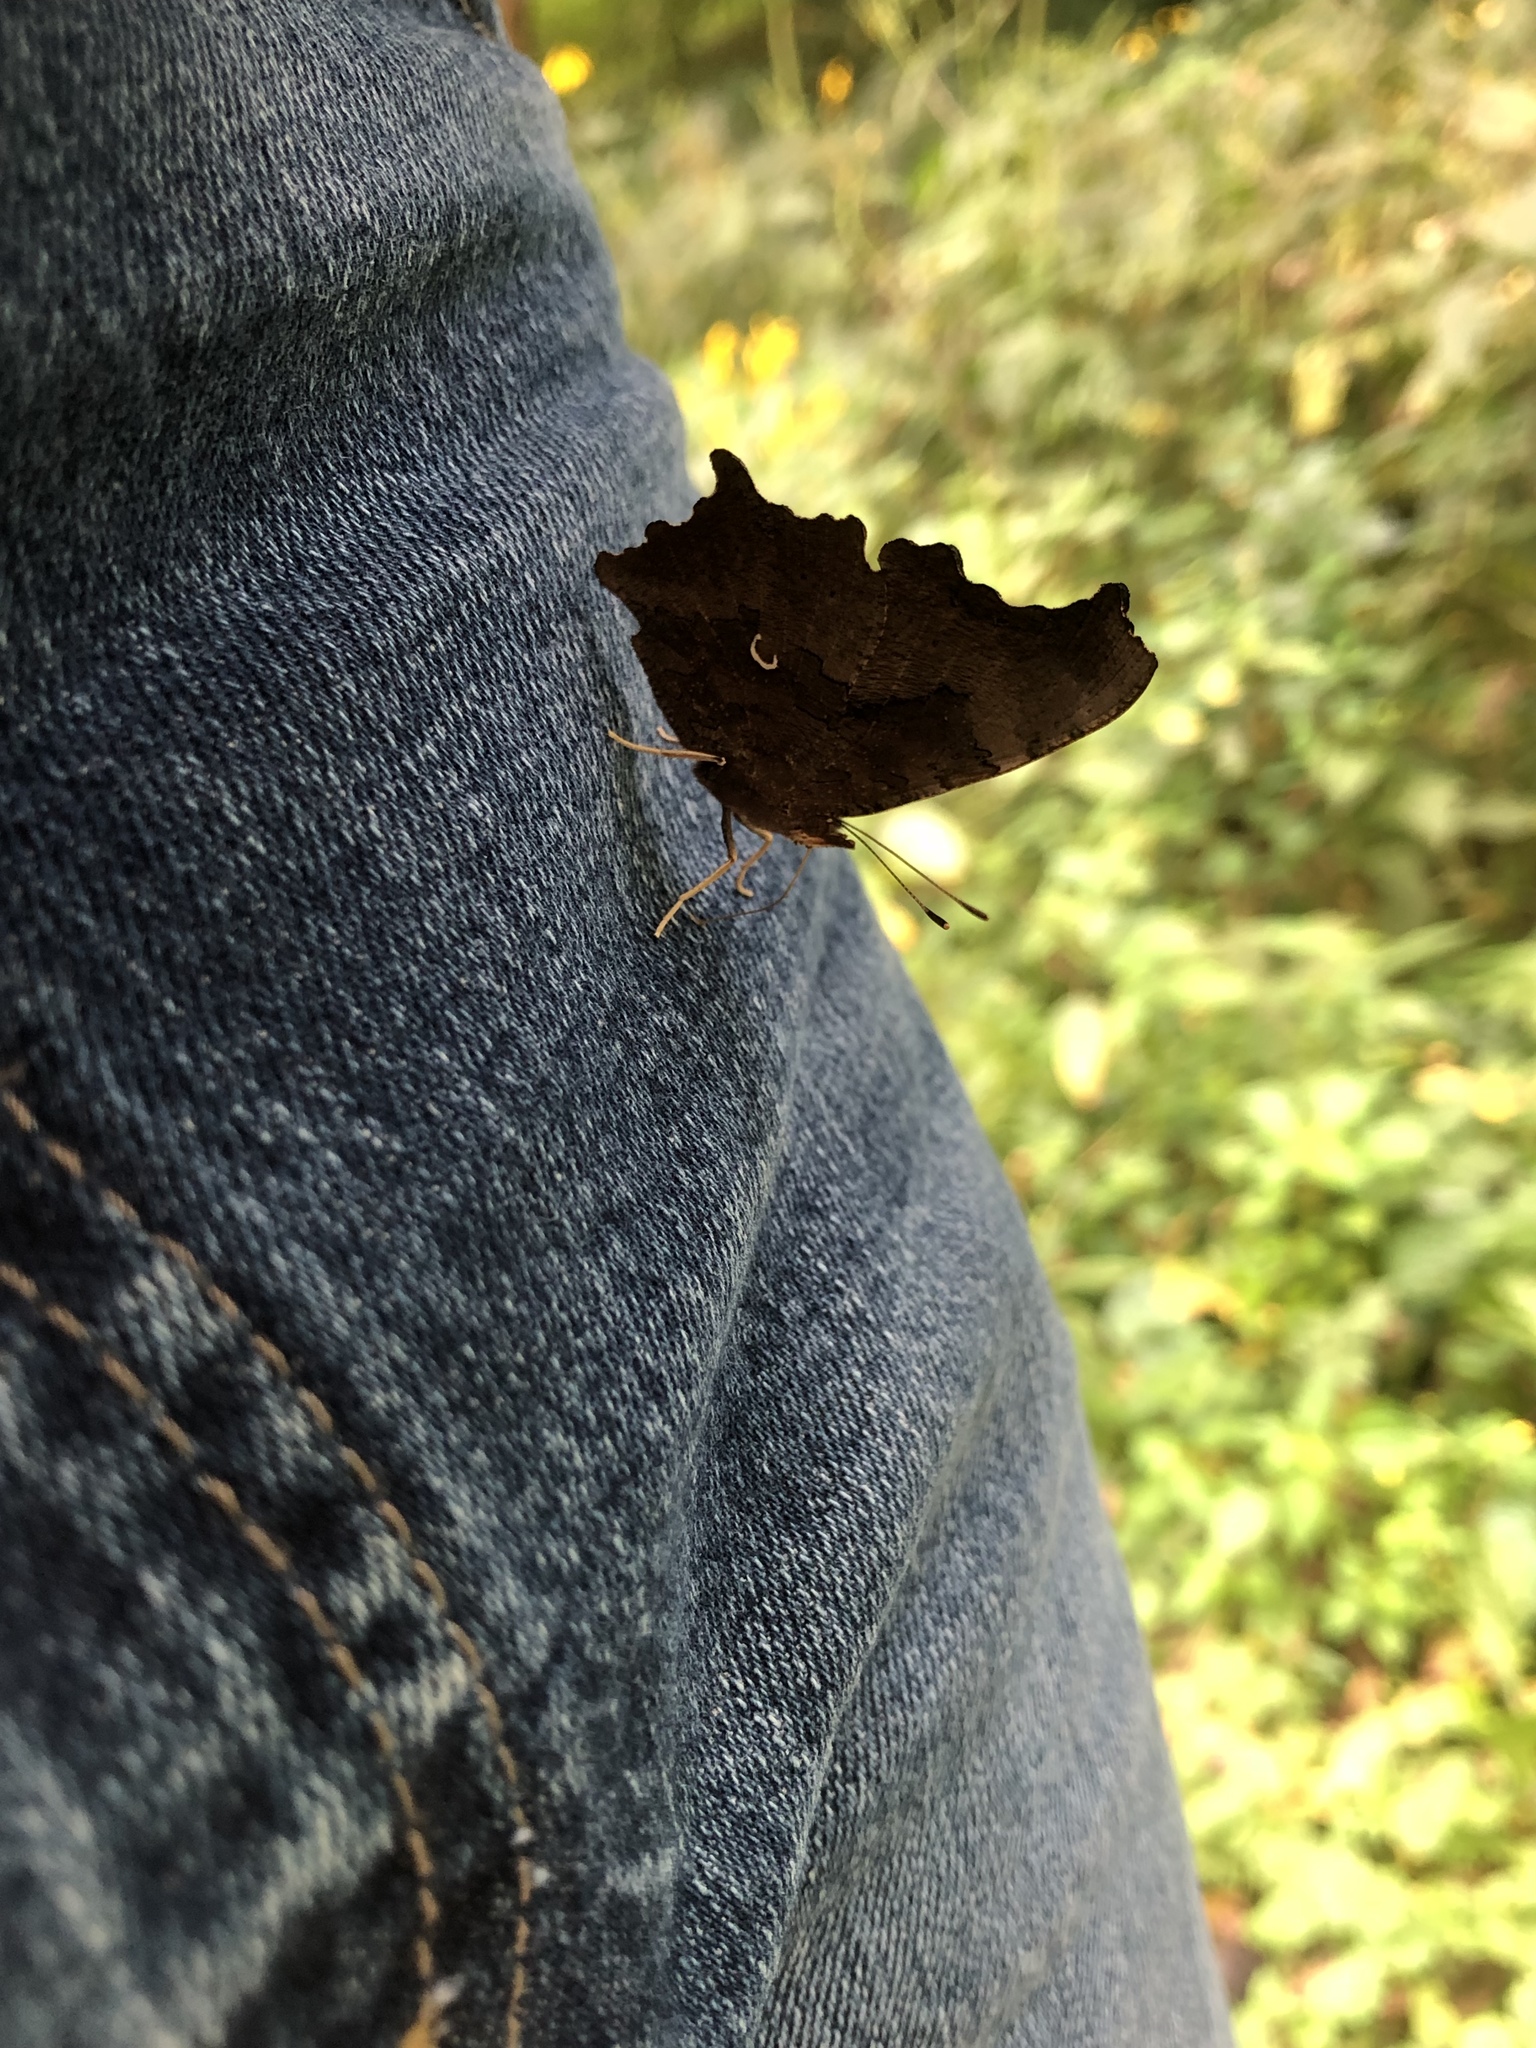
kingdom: Animalia
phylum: Arthropoda
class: Insecta
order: Lepidoptera
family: Nymphalidae
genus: Polygonia
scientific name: Polygonia comma
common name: Eastern comma
